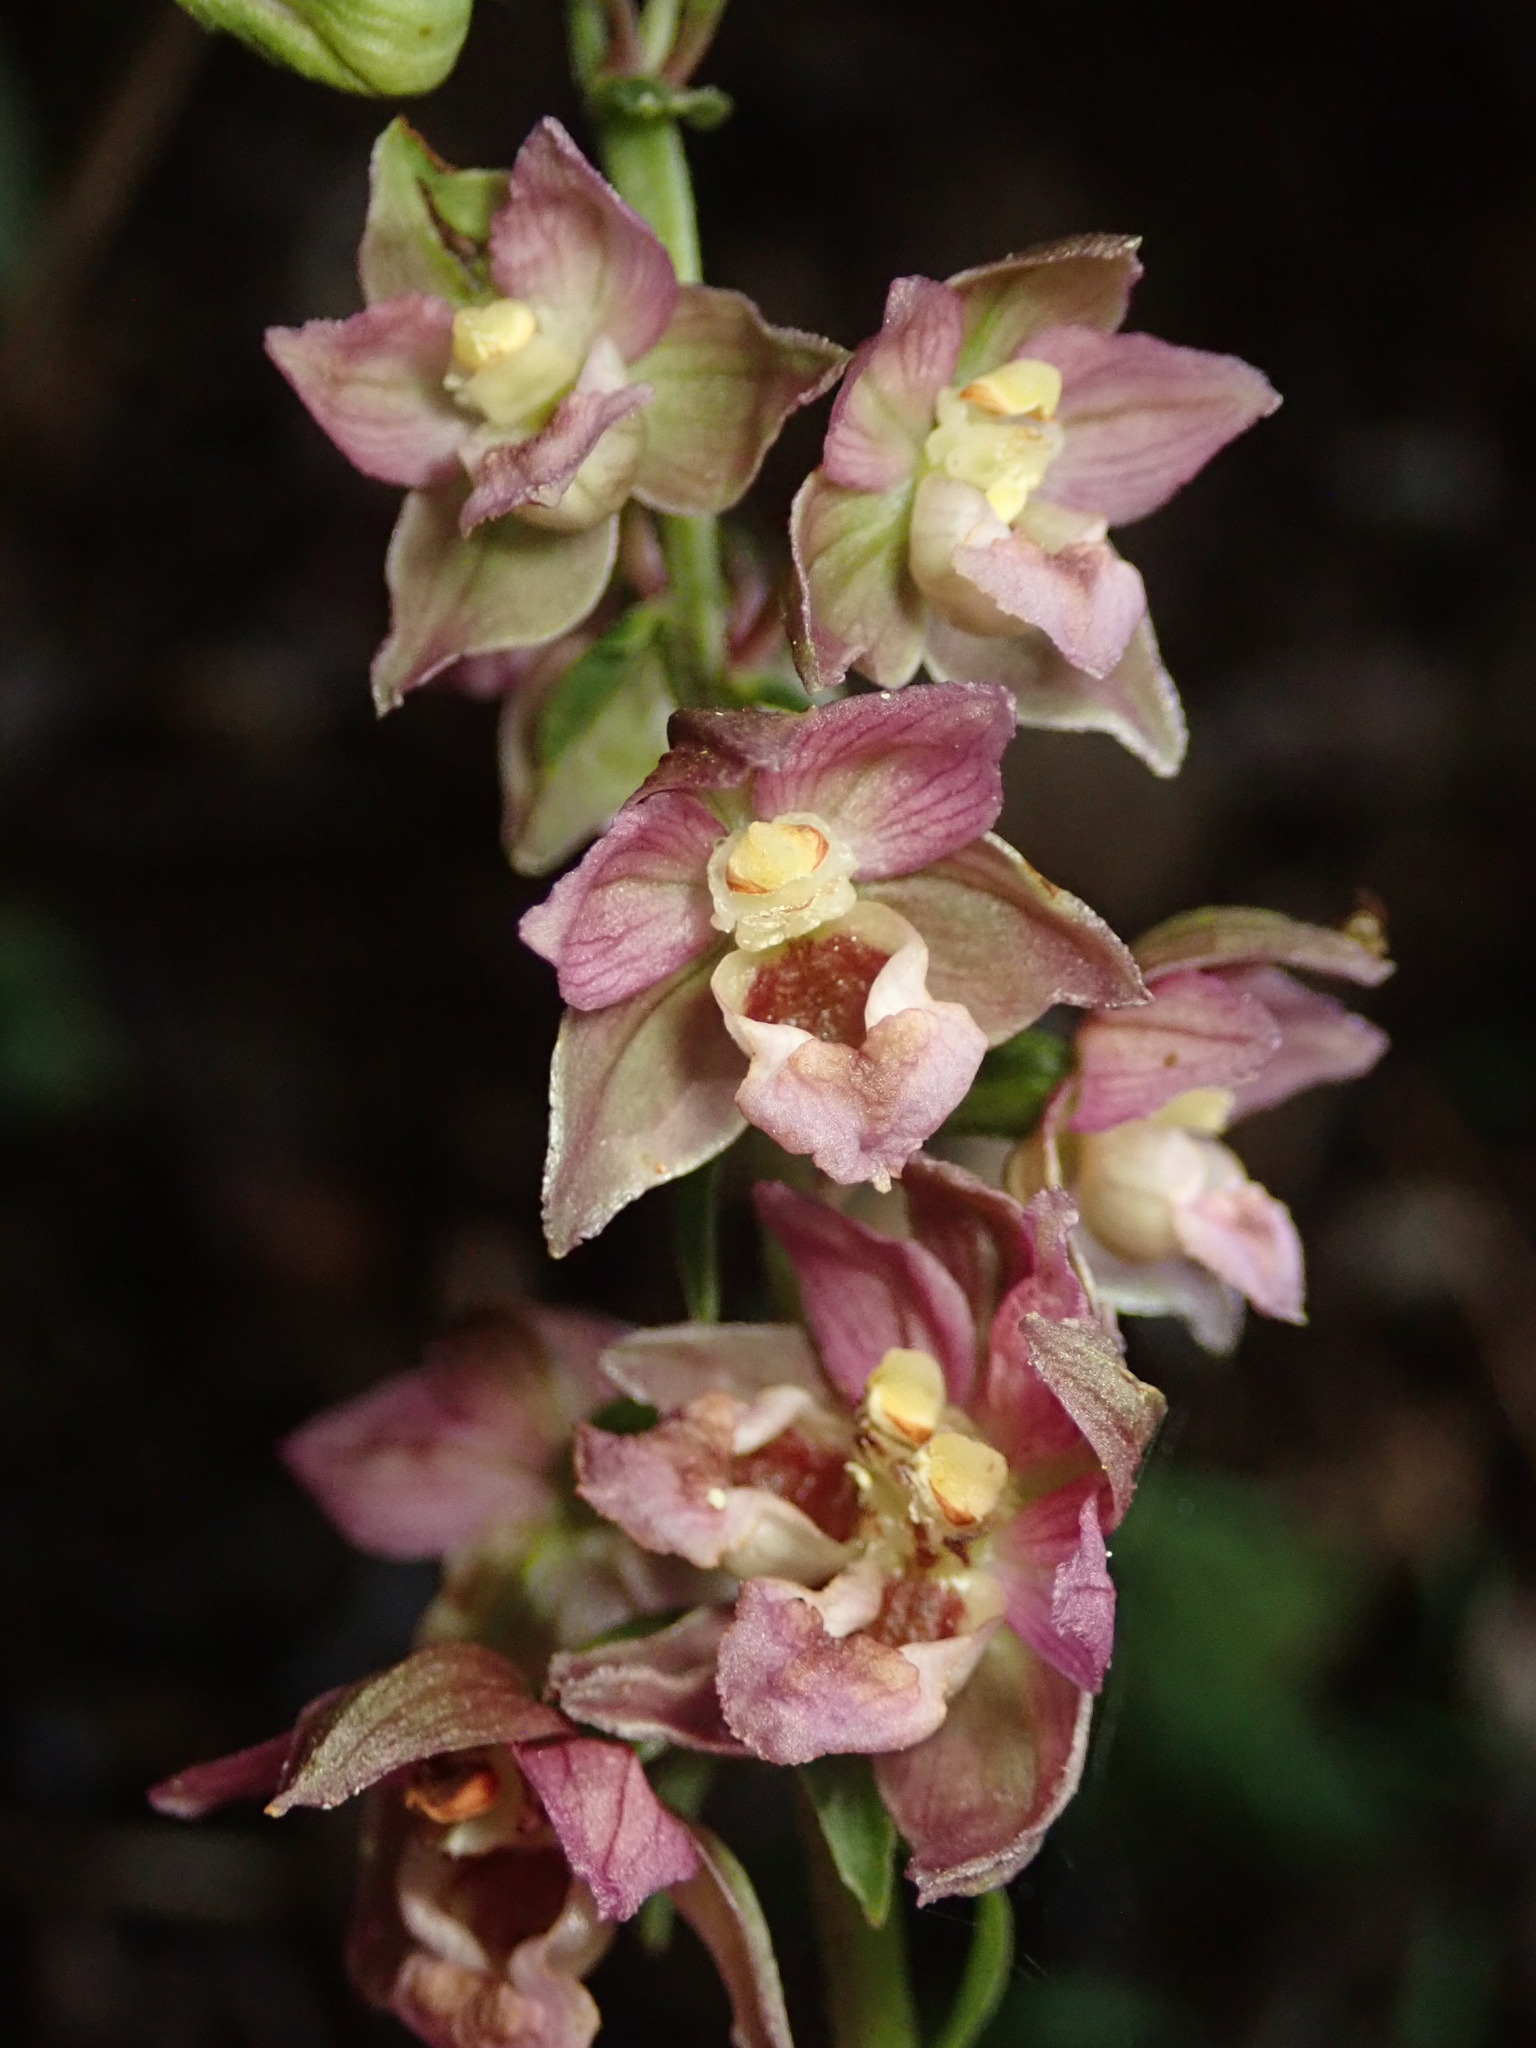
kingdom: Plantae
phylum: Tracheophyta
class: Liliopsida
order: Asparagales
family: Orchidaceae
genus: Epipactis
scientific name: Epipactis helleborine
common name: Broad-leaved helleborine
